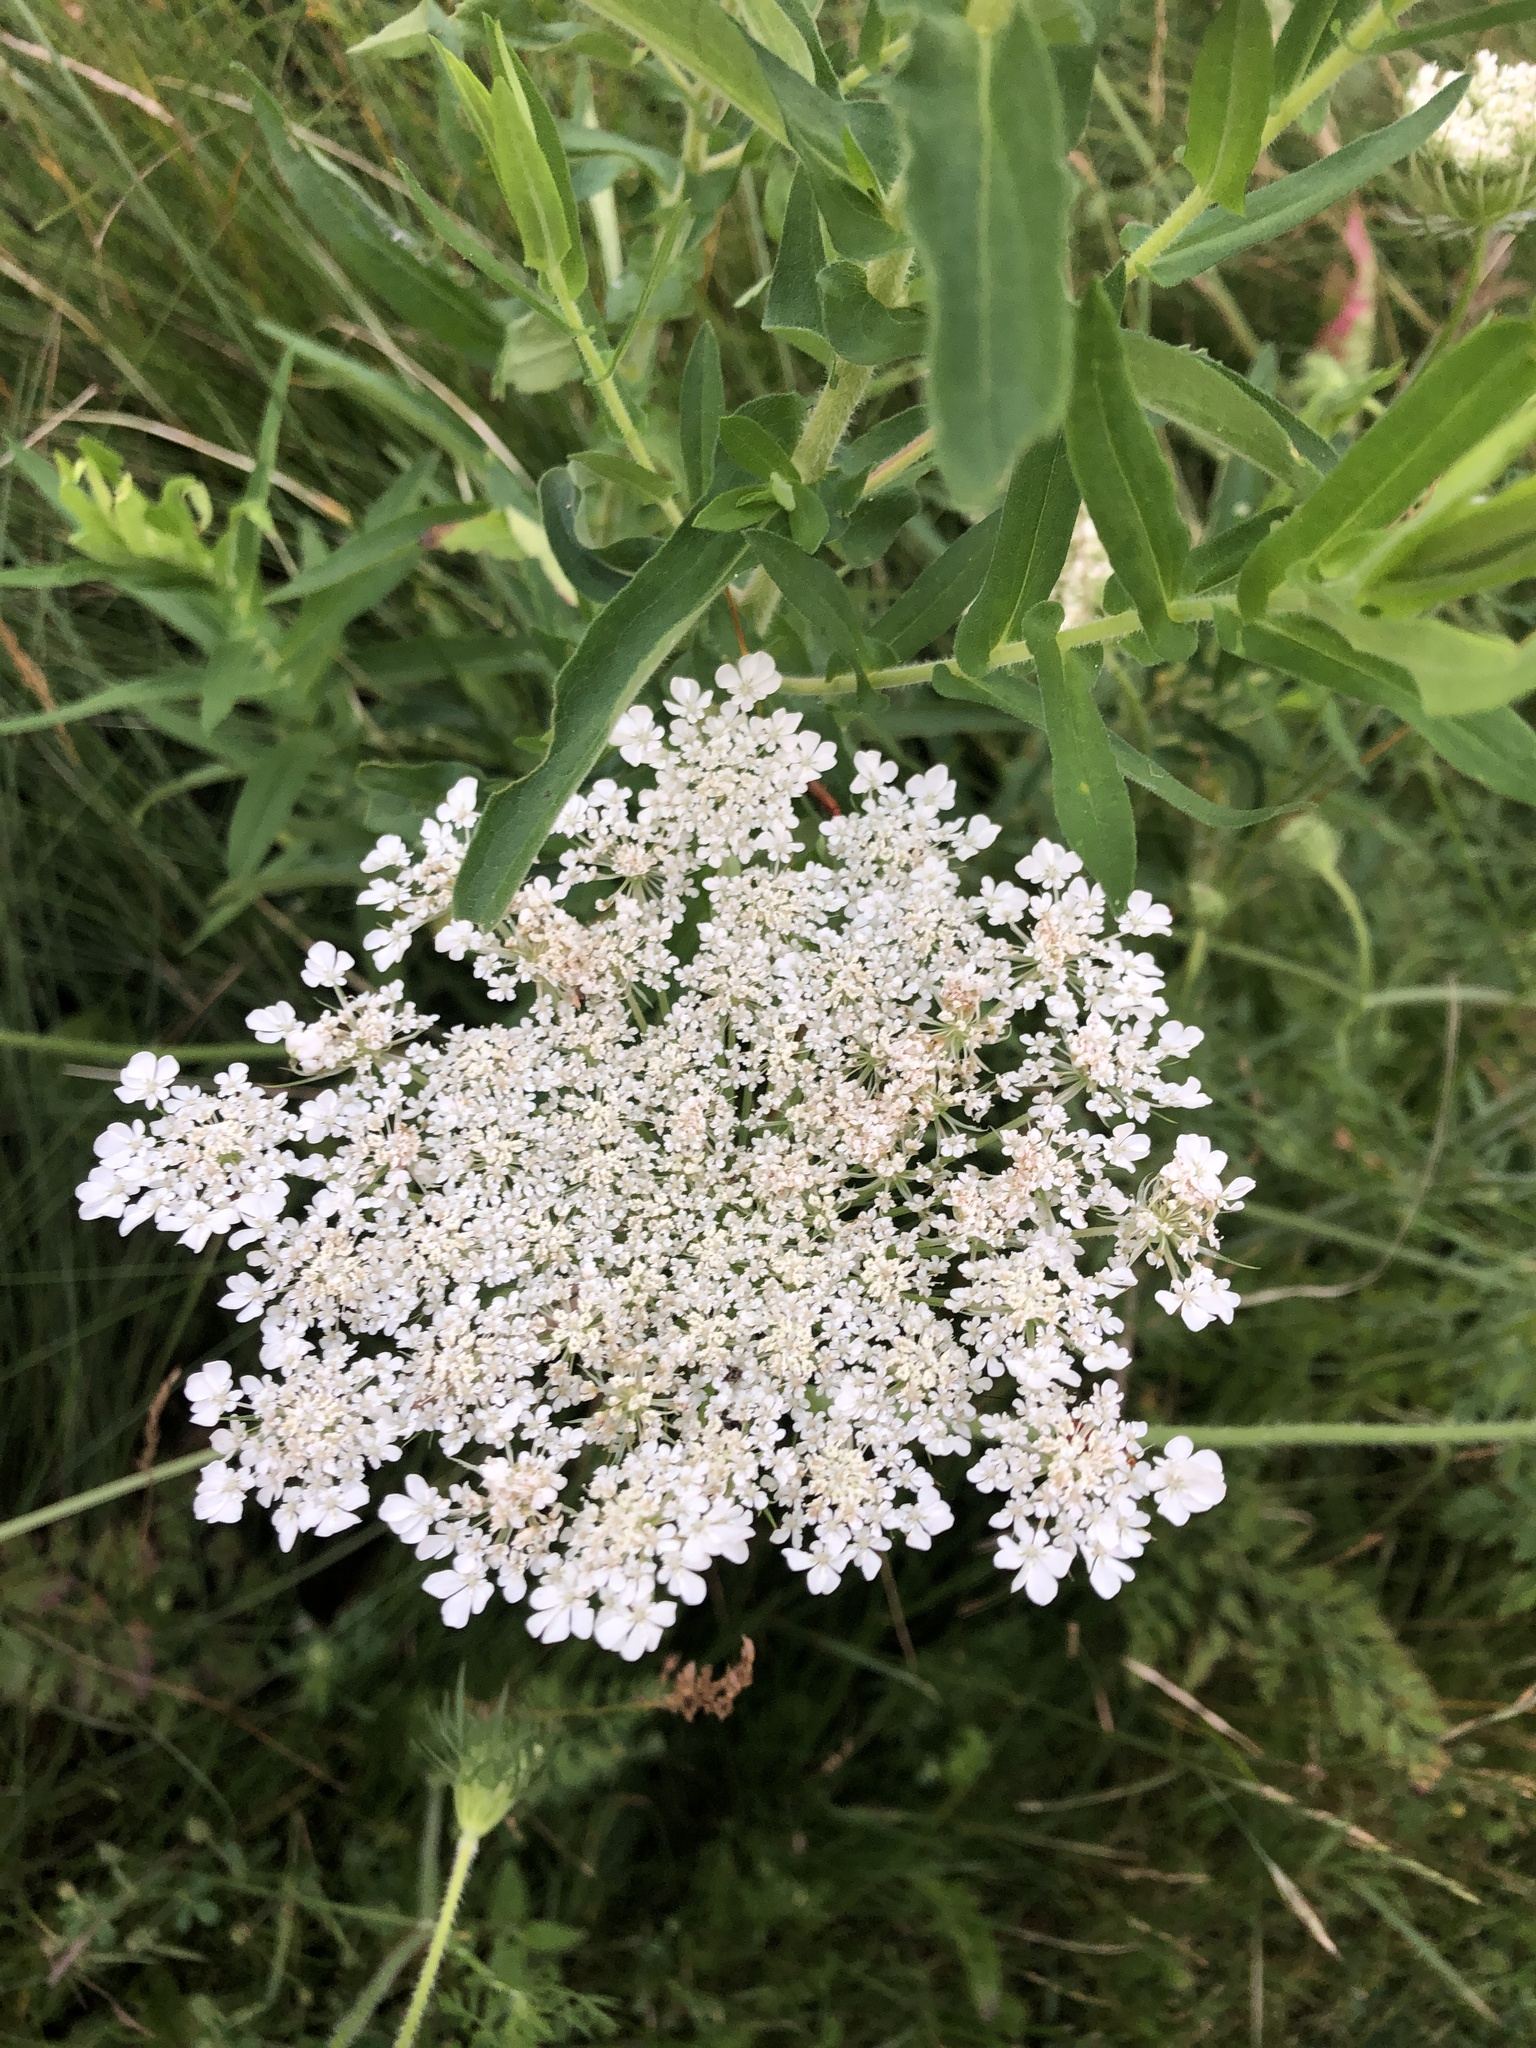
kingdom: Plantae
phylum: Tracheophyta
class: Magnoliopsida
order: Apiales
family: Apiaceae
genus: Daucus
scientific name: Daucus carota
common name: Wild carrot
